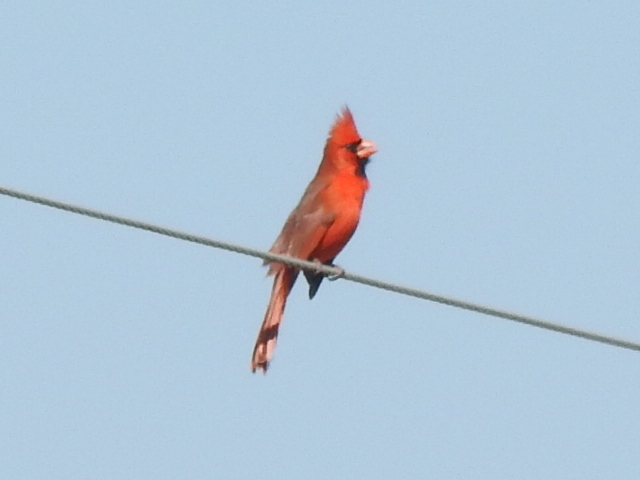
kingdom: Animalia
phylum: Chordata
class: Aves
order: Passeriformes
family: Cardinalidae
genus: Cardinalis
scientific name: Cardinalis cardinalis
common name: Northern cardinal
